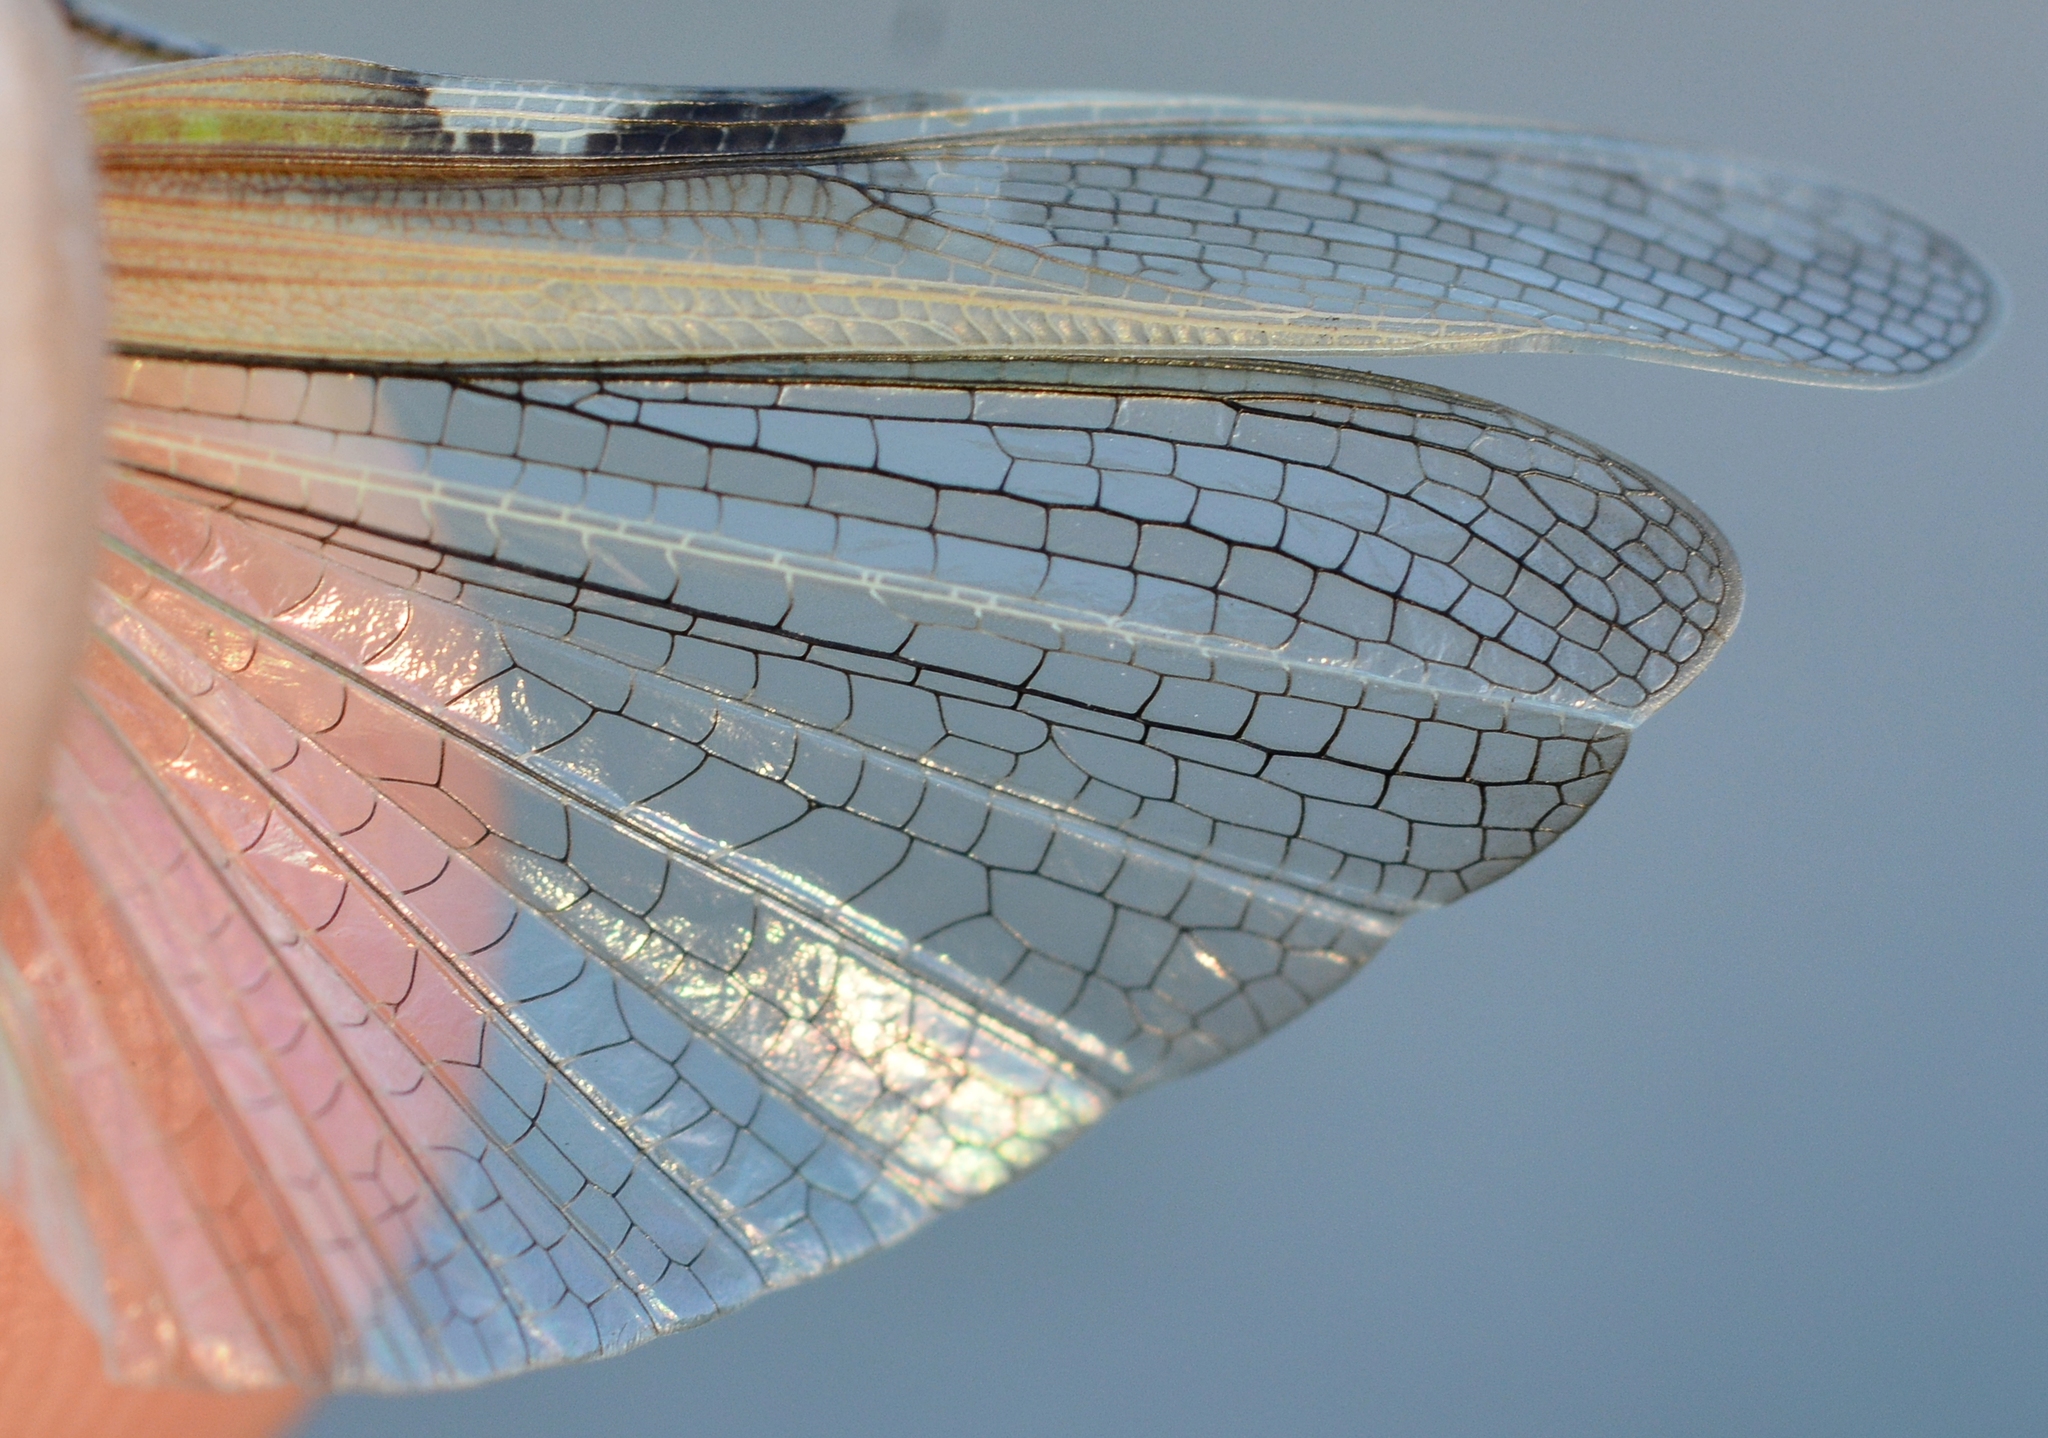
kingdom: Animalia
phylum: Arthropoda
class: Insecta
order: Orthoptera
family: Acrididae
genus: Aiolopus
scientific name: Aiolopus puissanti
